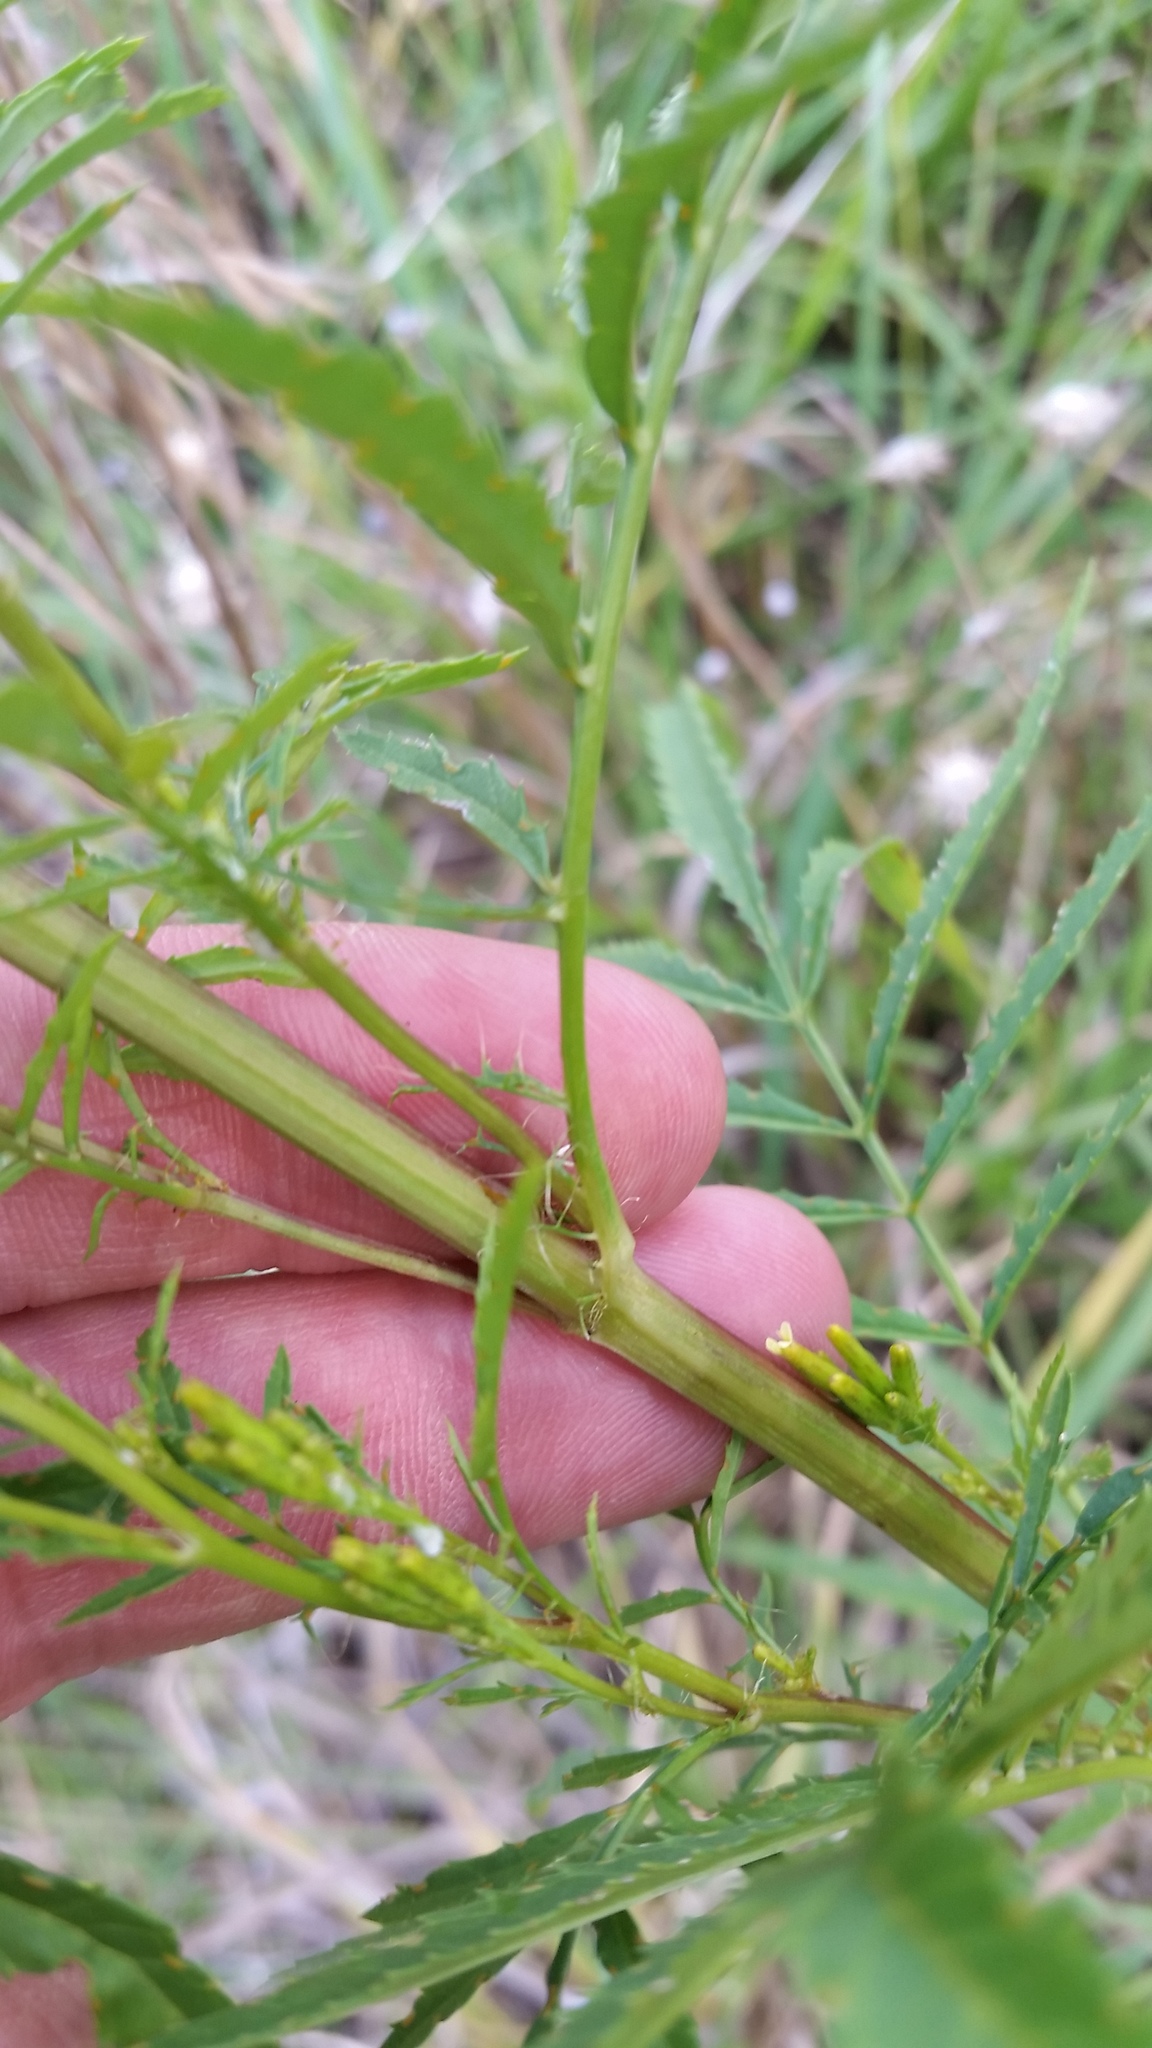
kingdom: Plantae
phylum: Tracheophyta
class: Magnoliopsida
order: Asterales
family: Asteraceae
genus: Tagetes
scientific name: Tagetes minuta
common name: Muster john henry
